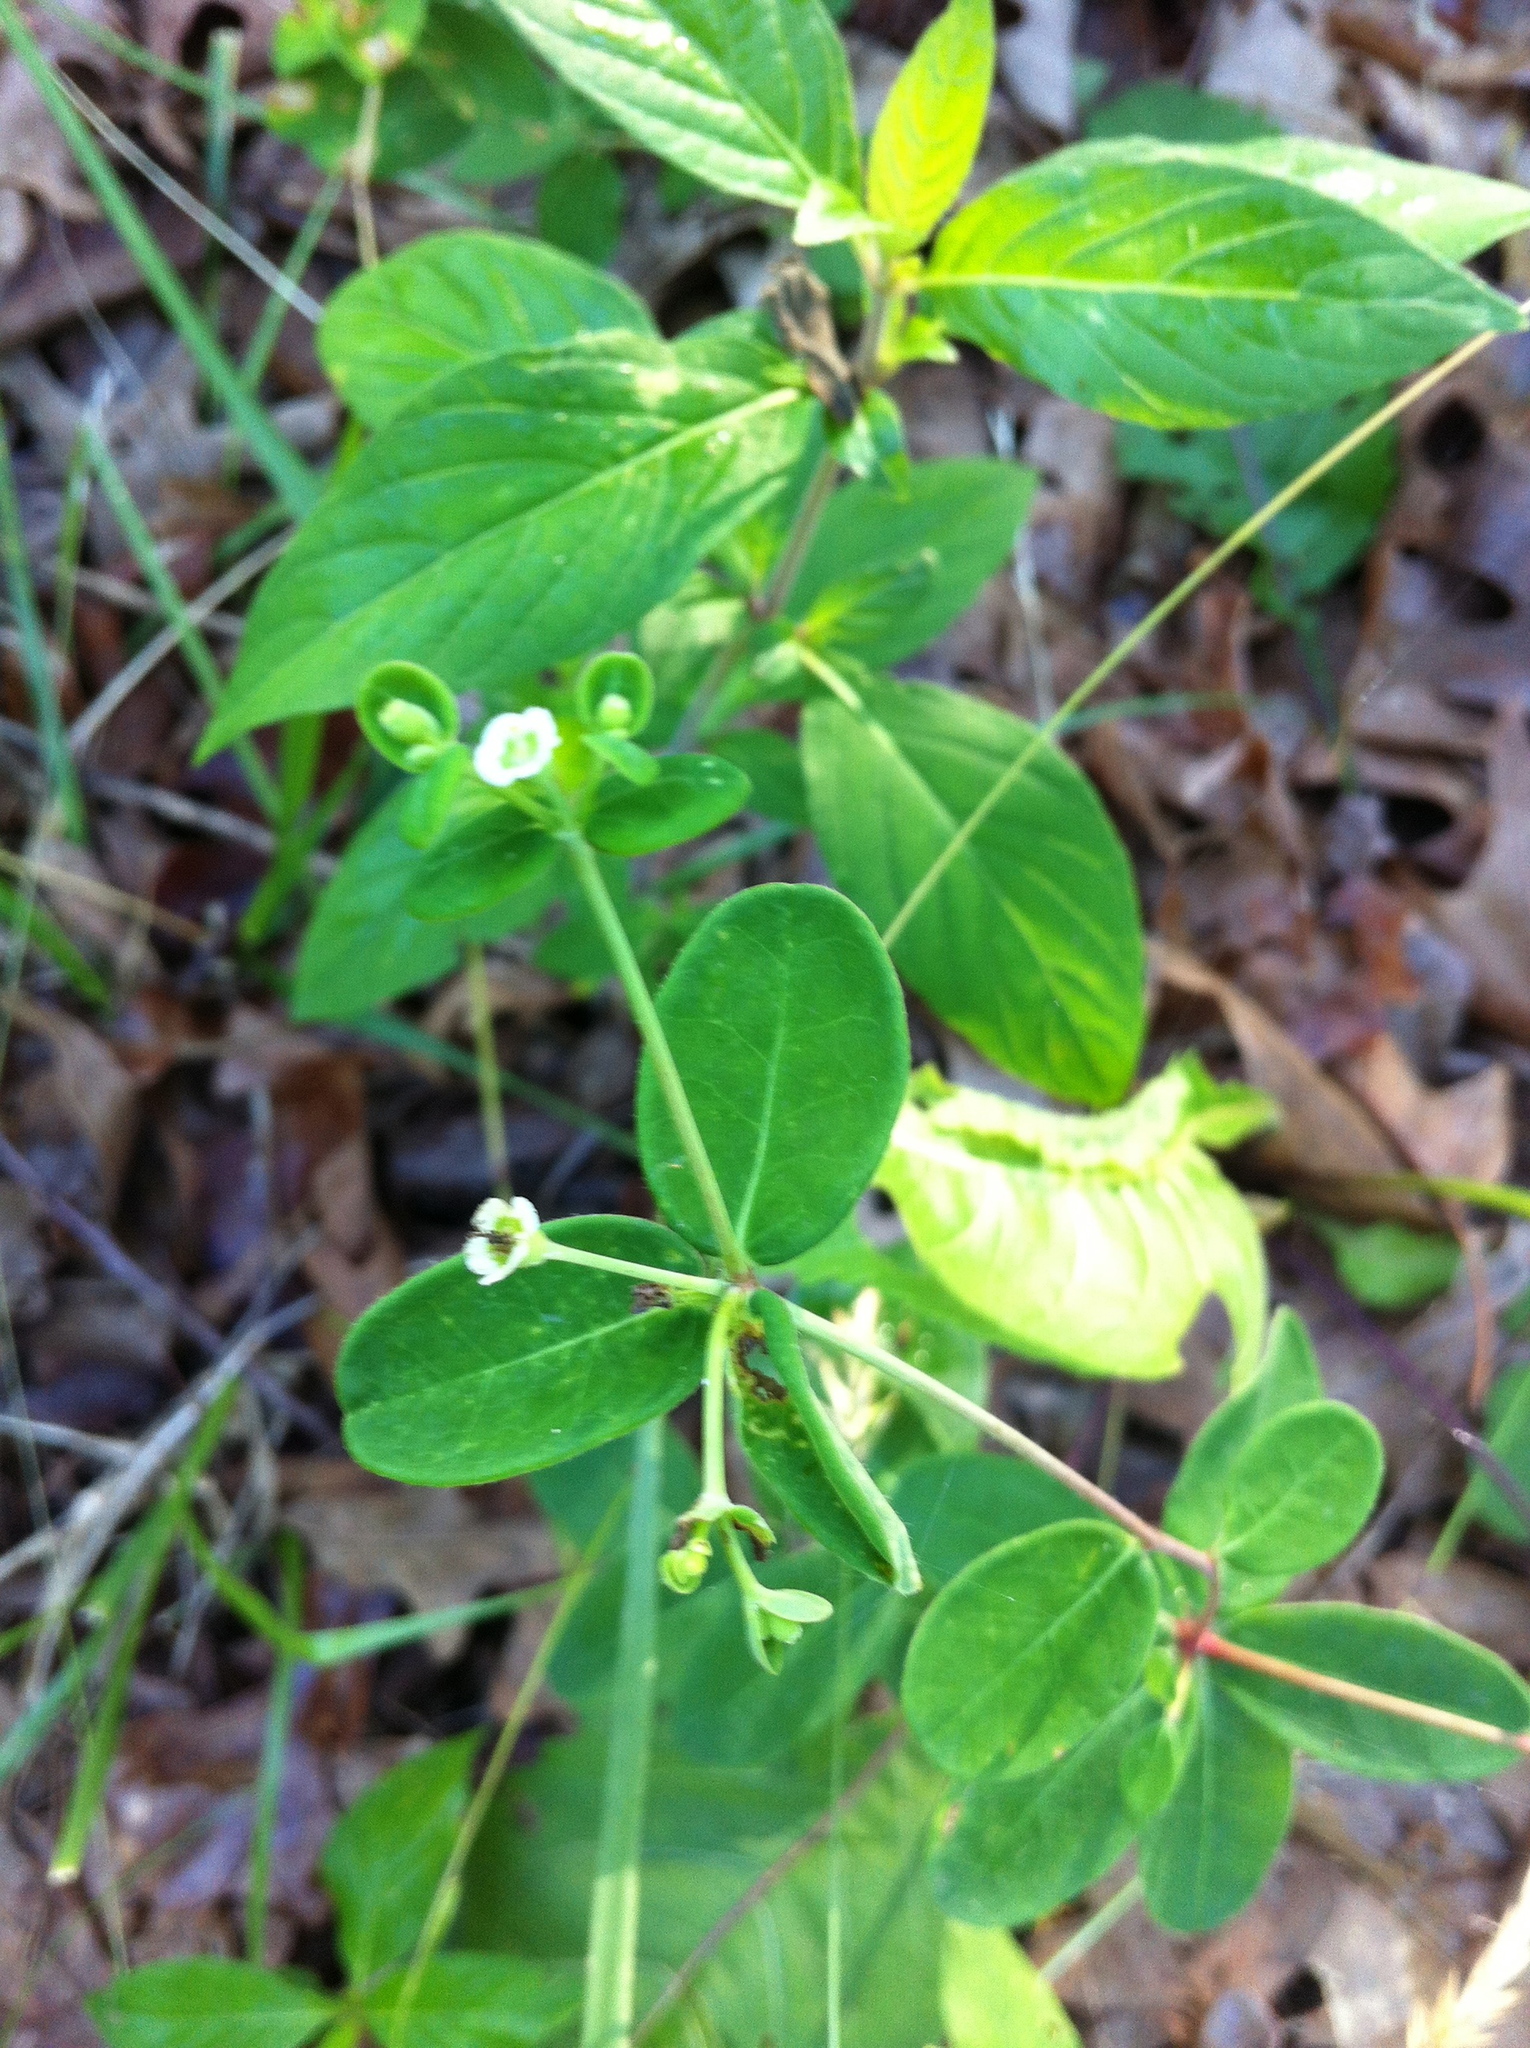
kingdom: Plantae
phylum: Tracheophyta
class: Magnoliopsida
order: Malpighiales
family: Euphorbiaceae
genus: Euphorbia
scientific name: Euphorbia corollata
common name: Flowering spurge
